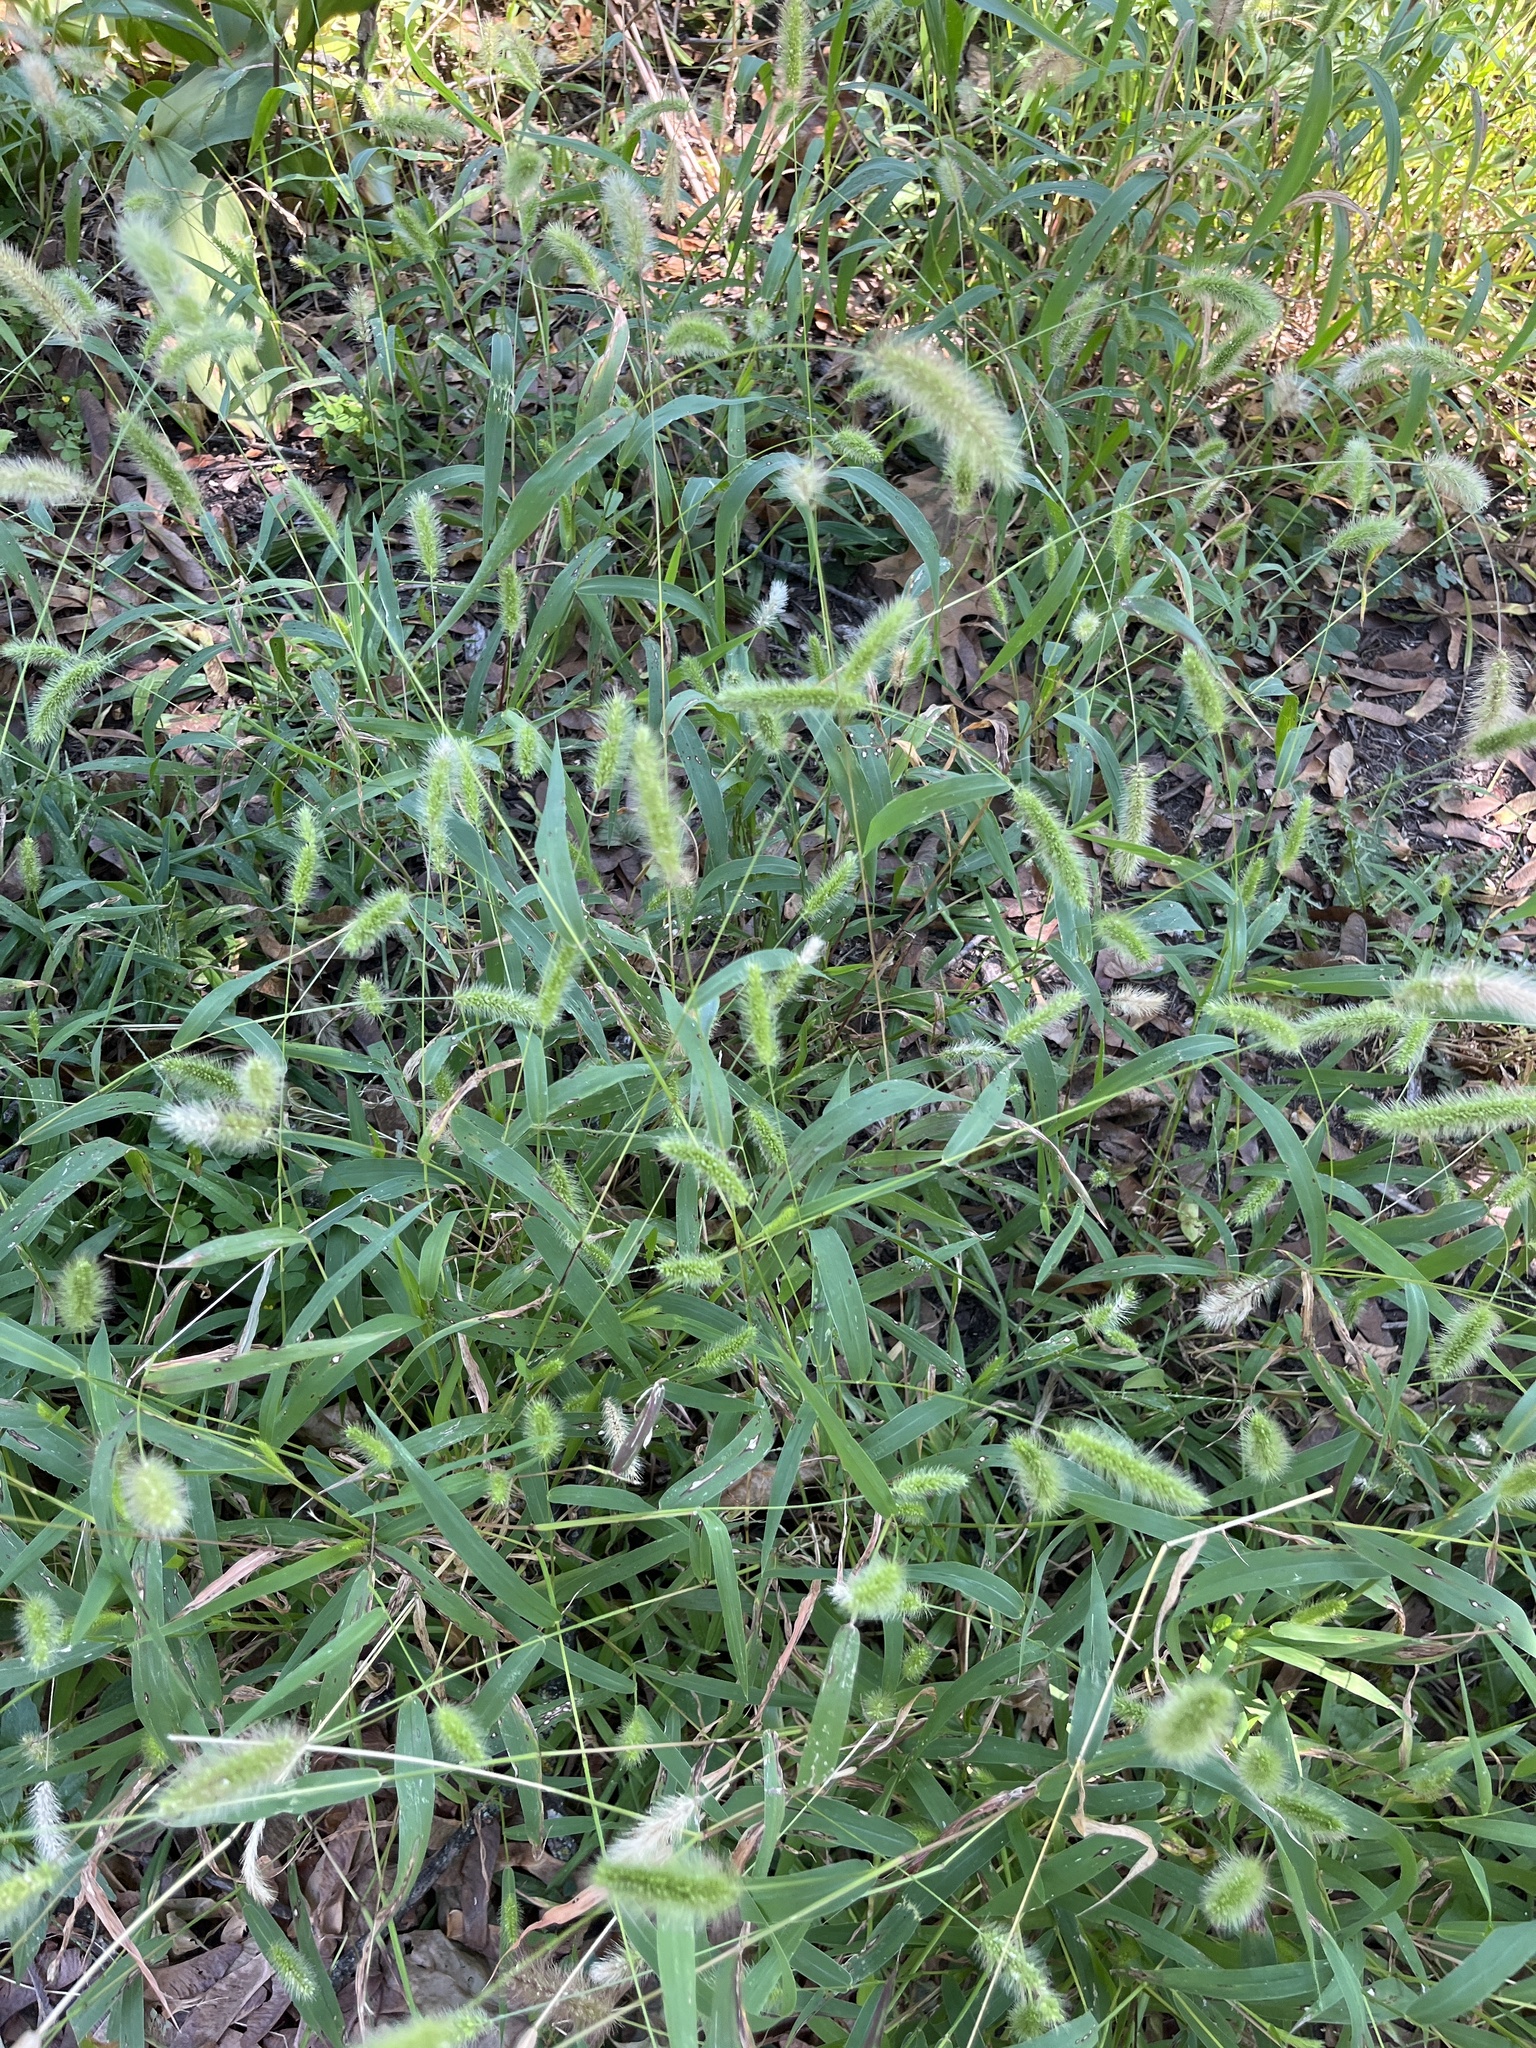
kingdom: Plantae
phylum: Tracheophyta
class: Liliopsida
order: Poales
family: Poaceae
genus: Setaria
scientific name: Setaria viridis
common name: Green bristlegrass
